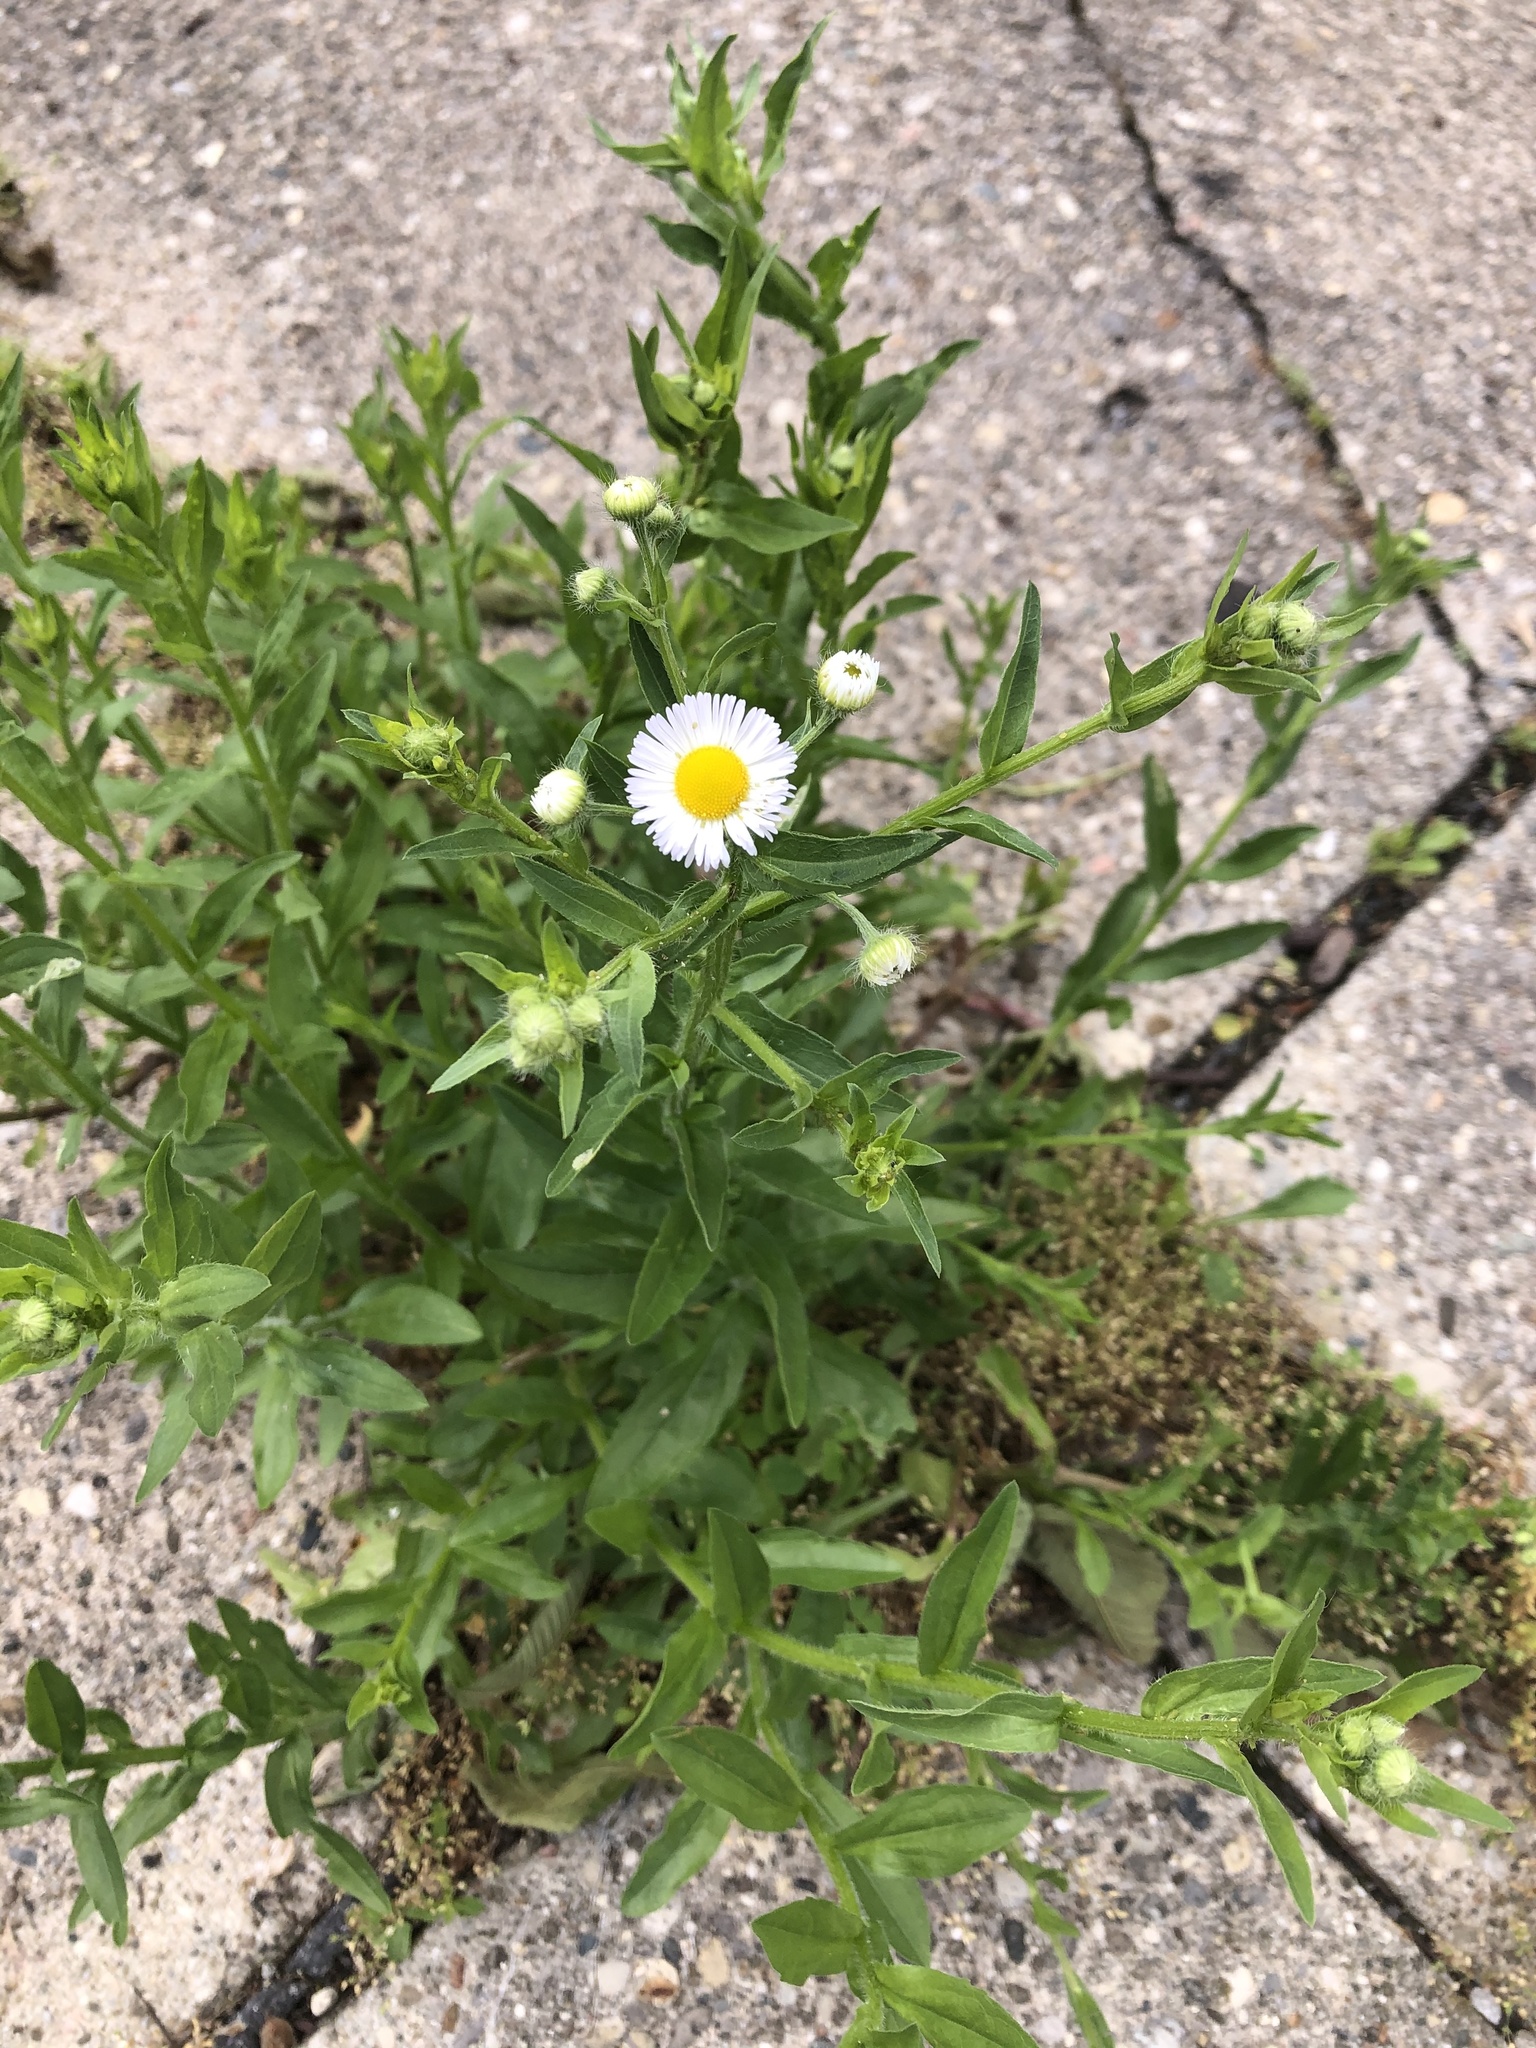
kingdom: Plantae
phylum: Tracheophyta
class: Magnoliopsida
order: Asterales
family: Asteraceae
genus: Erigeron
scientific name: Erigeron philadelphicus
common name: Robin's-plantain
